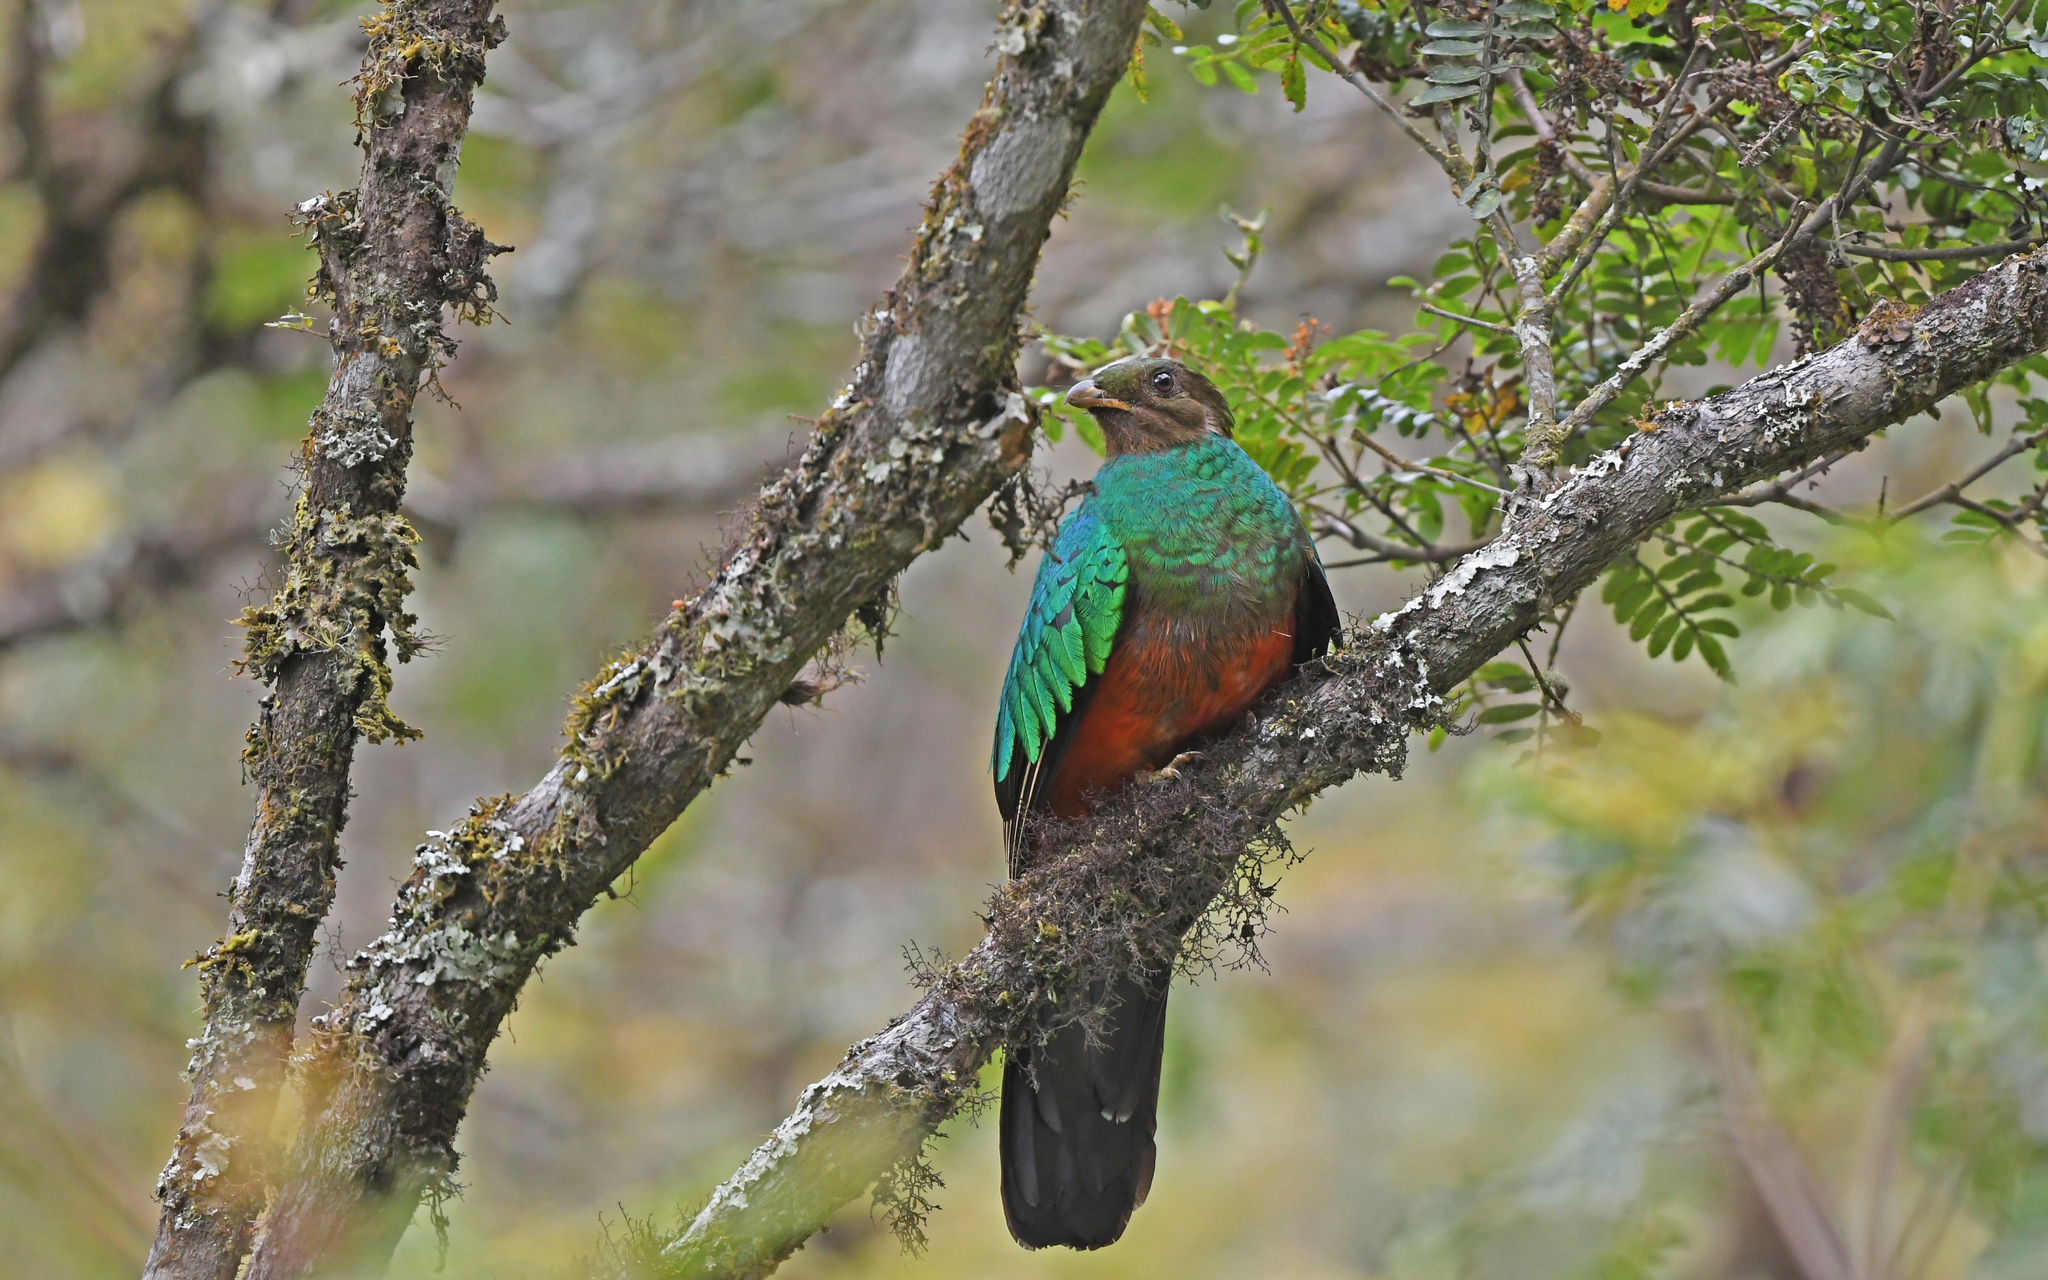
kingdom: Animalia
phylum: Chordata
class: Aves
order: Trogoniformes
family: Trogonidae
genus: Pharomachrus
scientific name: Pharomachrus auriceps
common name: Golden-headed quetzal
